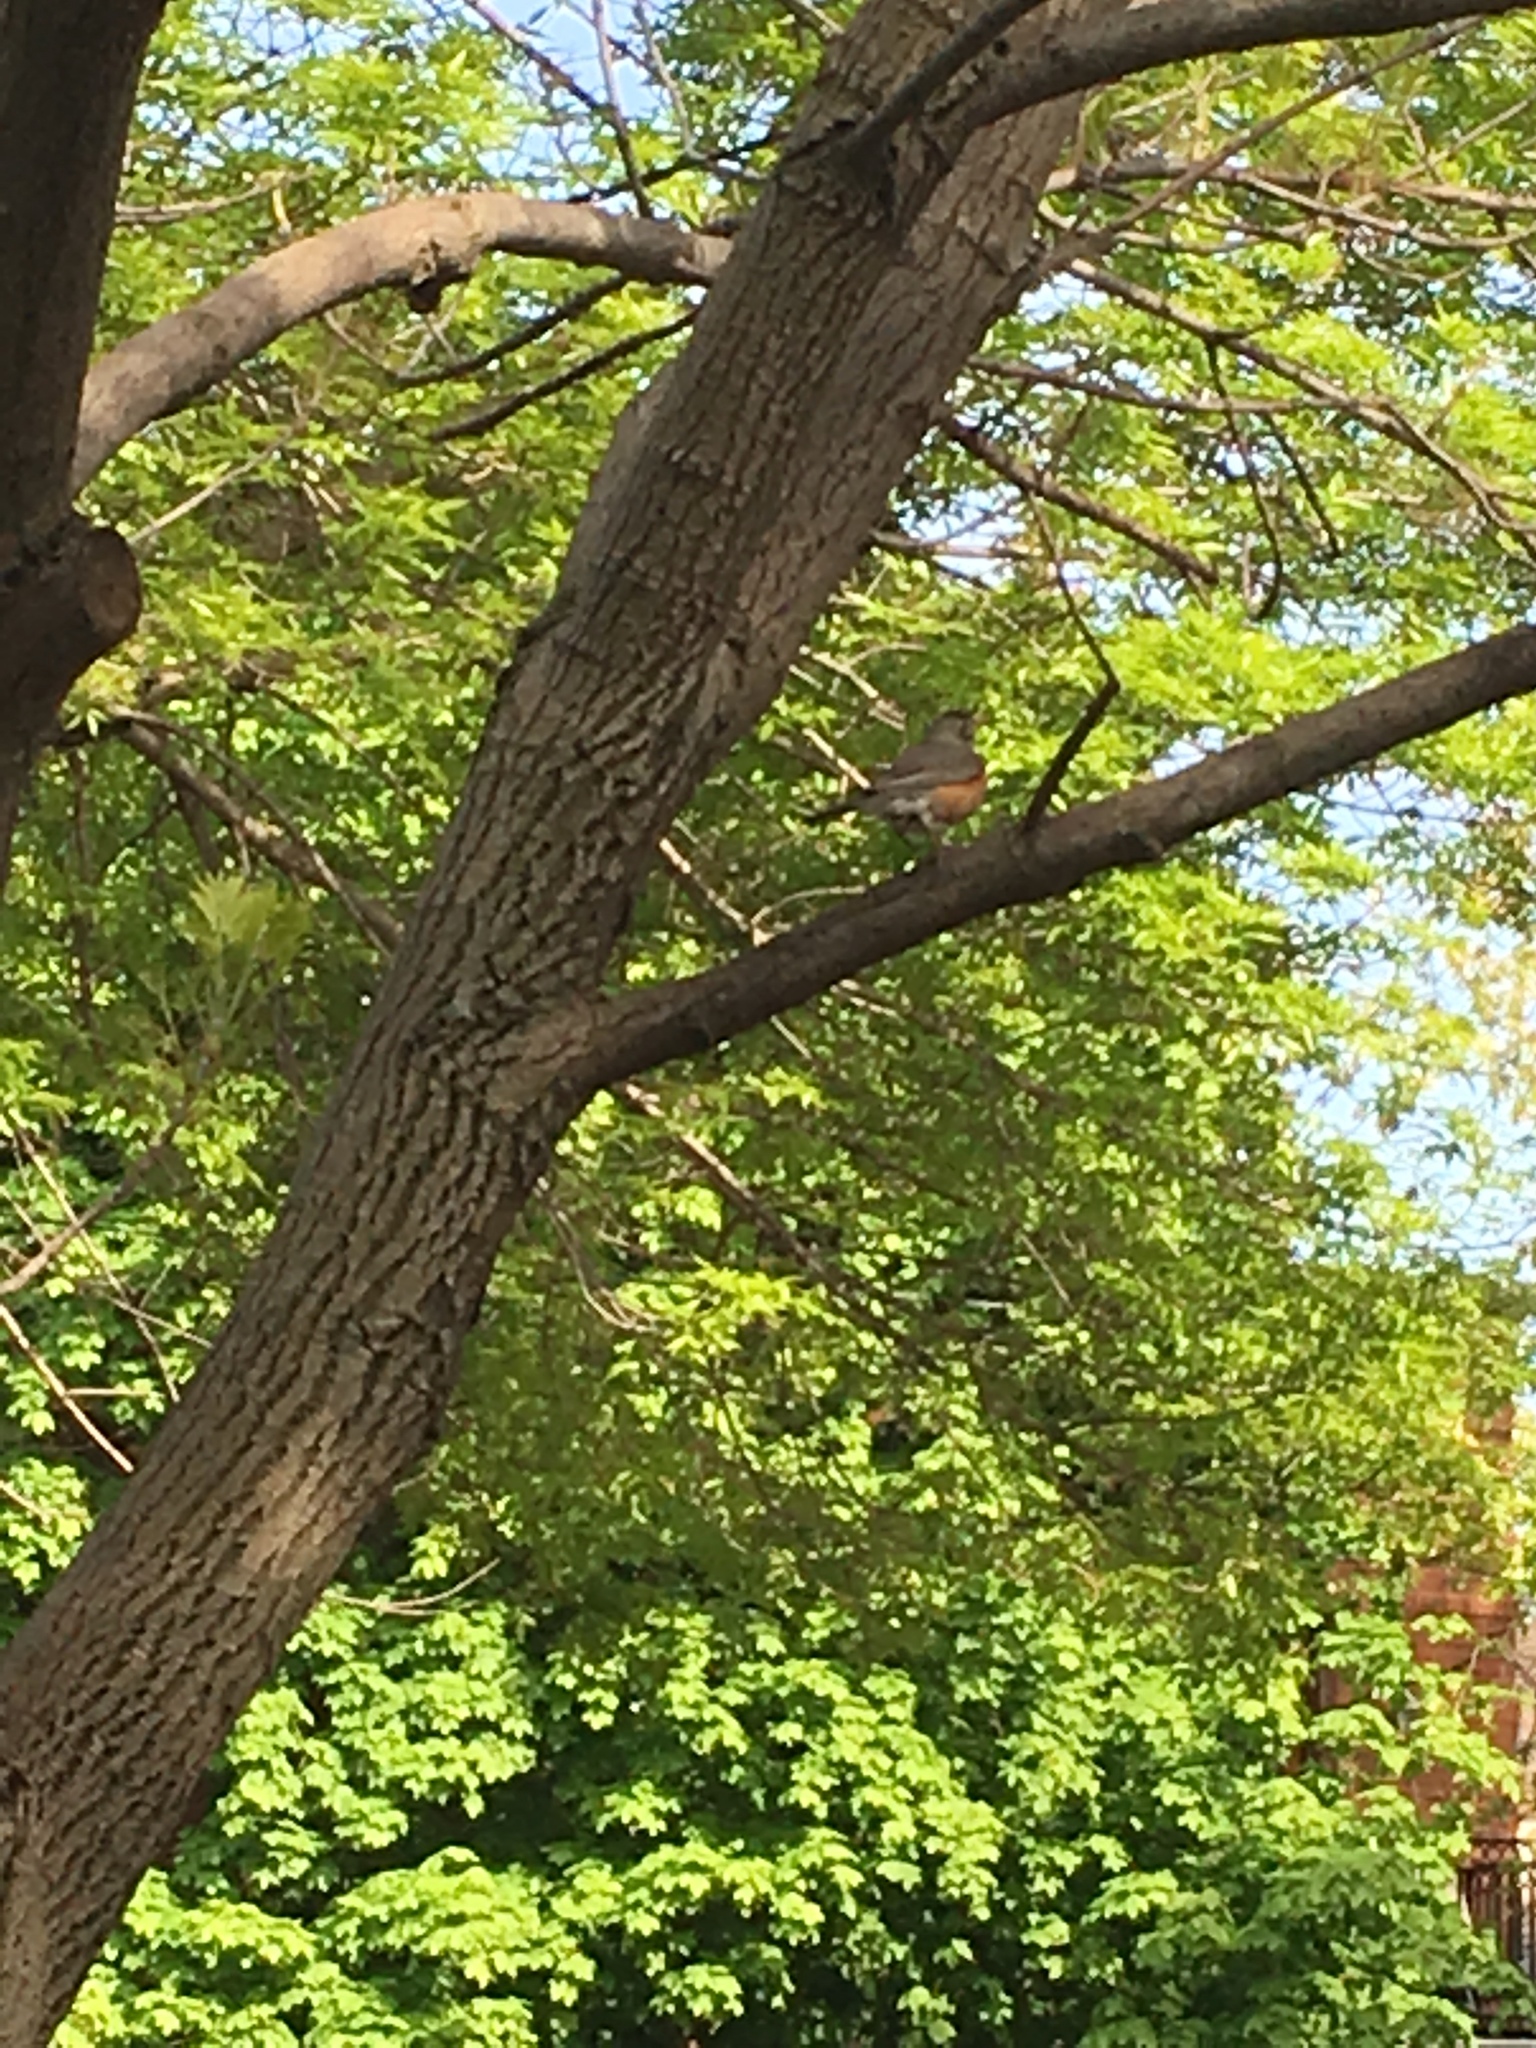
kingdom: Animalia
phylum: Chordata
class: Aves
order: Passeriformes
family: Turdidae
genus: Turdus
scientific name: Turdus migratorius
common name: American robin
